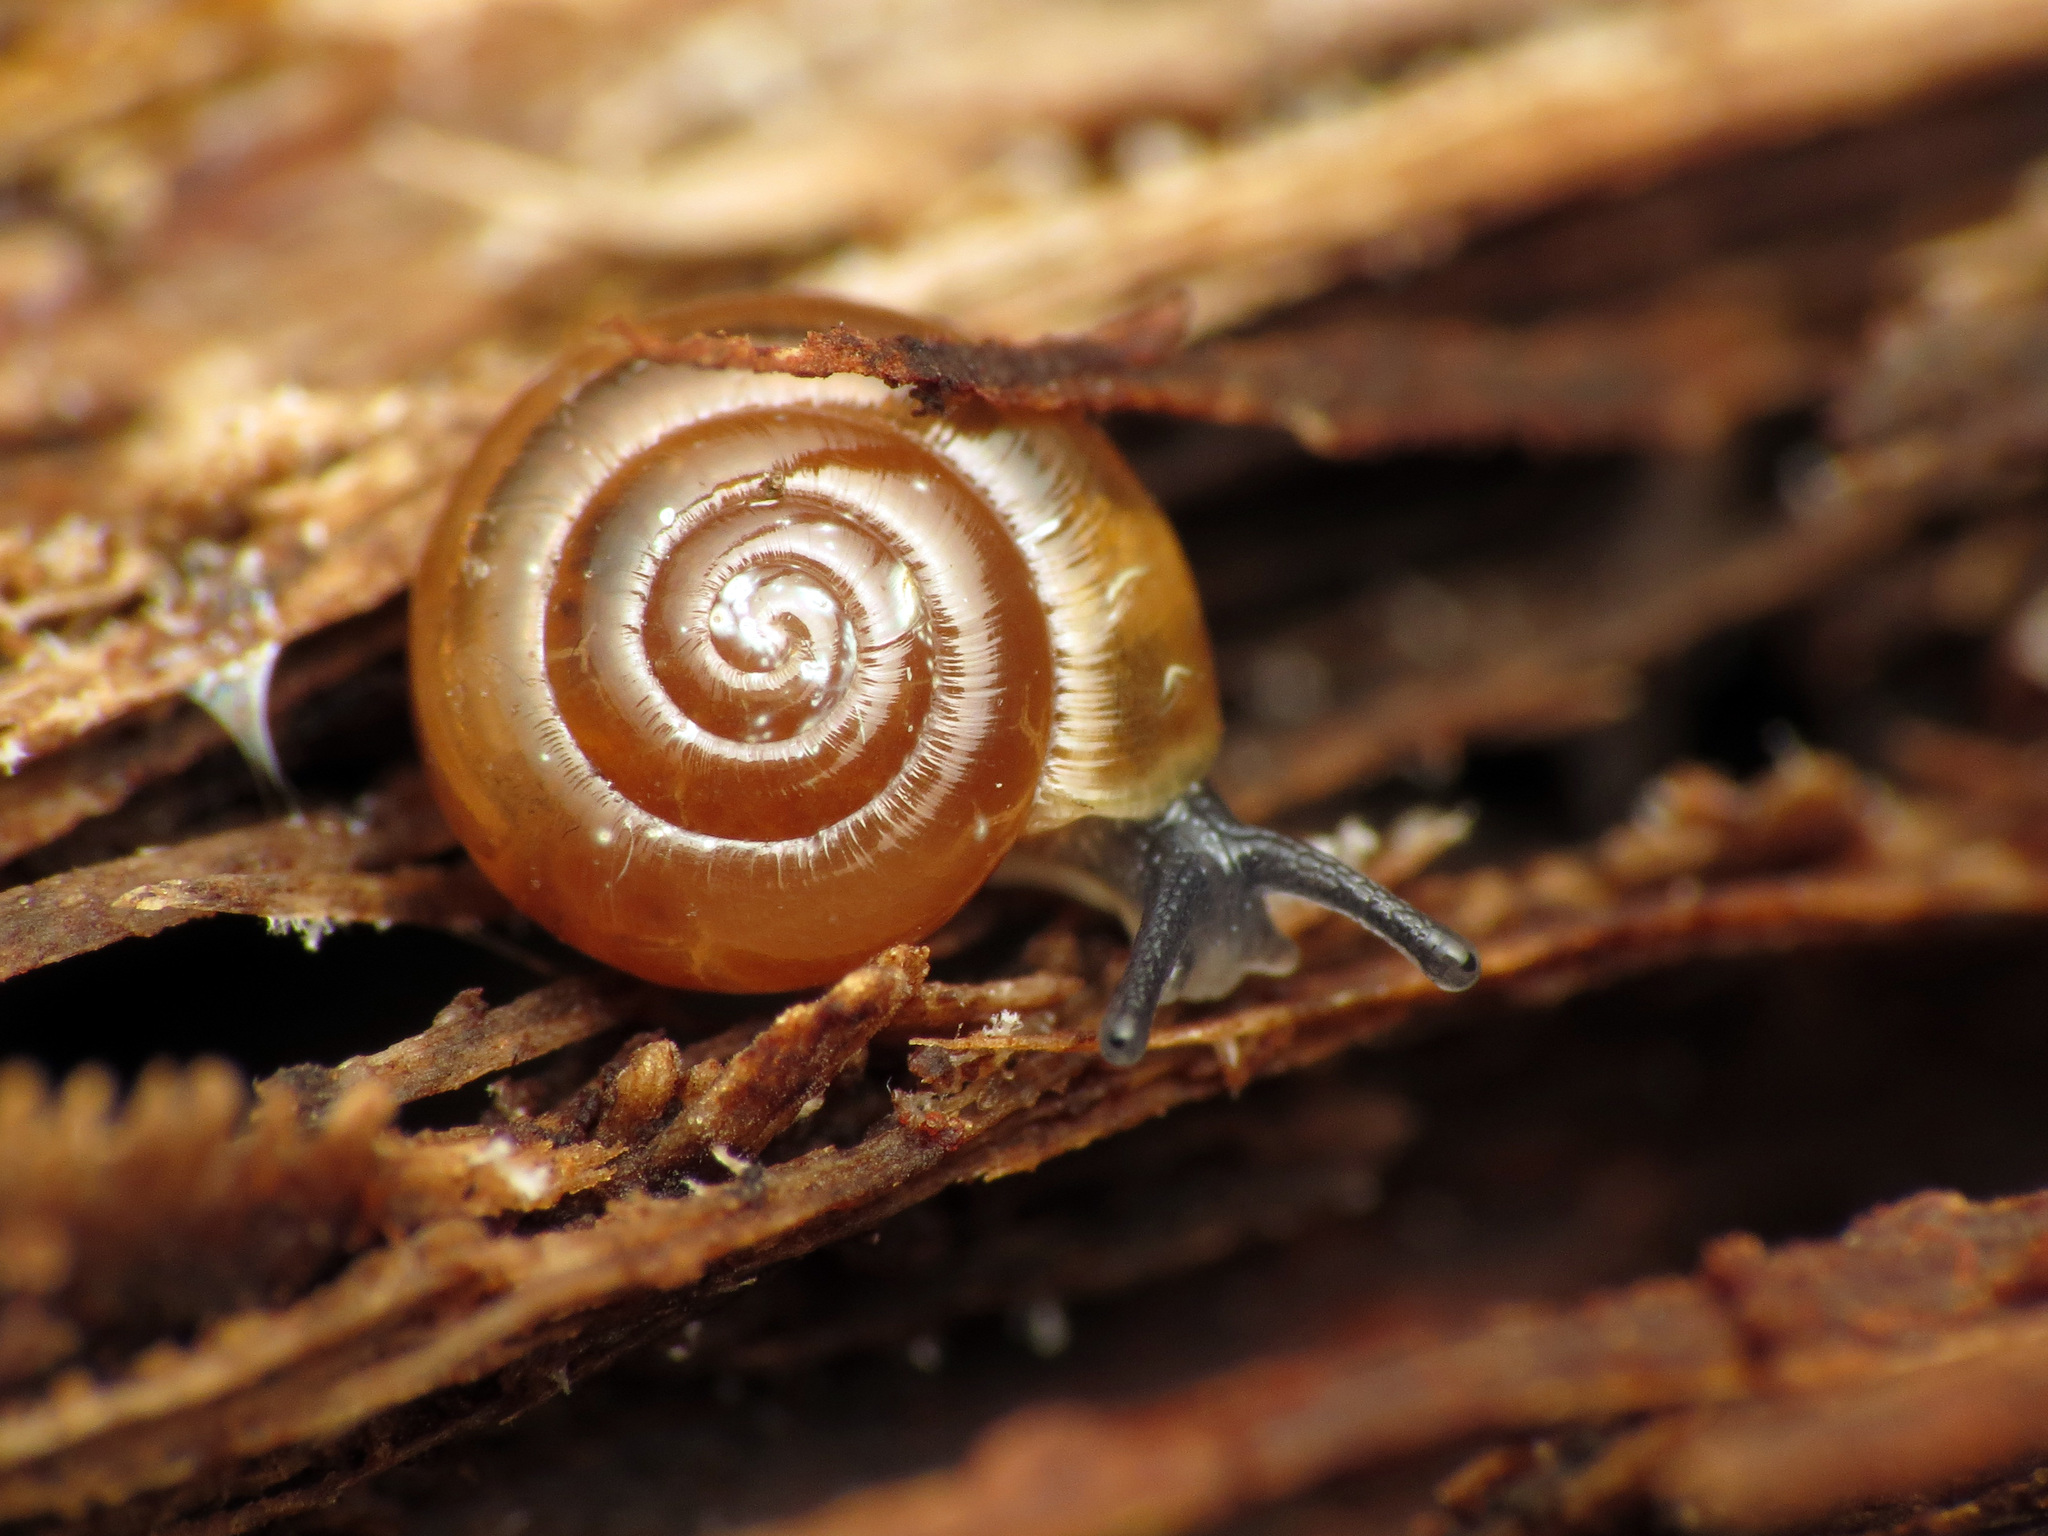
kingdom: Animalia
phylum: Mollusca
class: Gastropoda
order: Stylommatophora
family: Gastrodontidae
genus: Zonitoides
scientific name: Zonitoides arboreus
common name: Quick gloss
